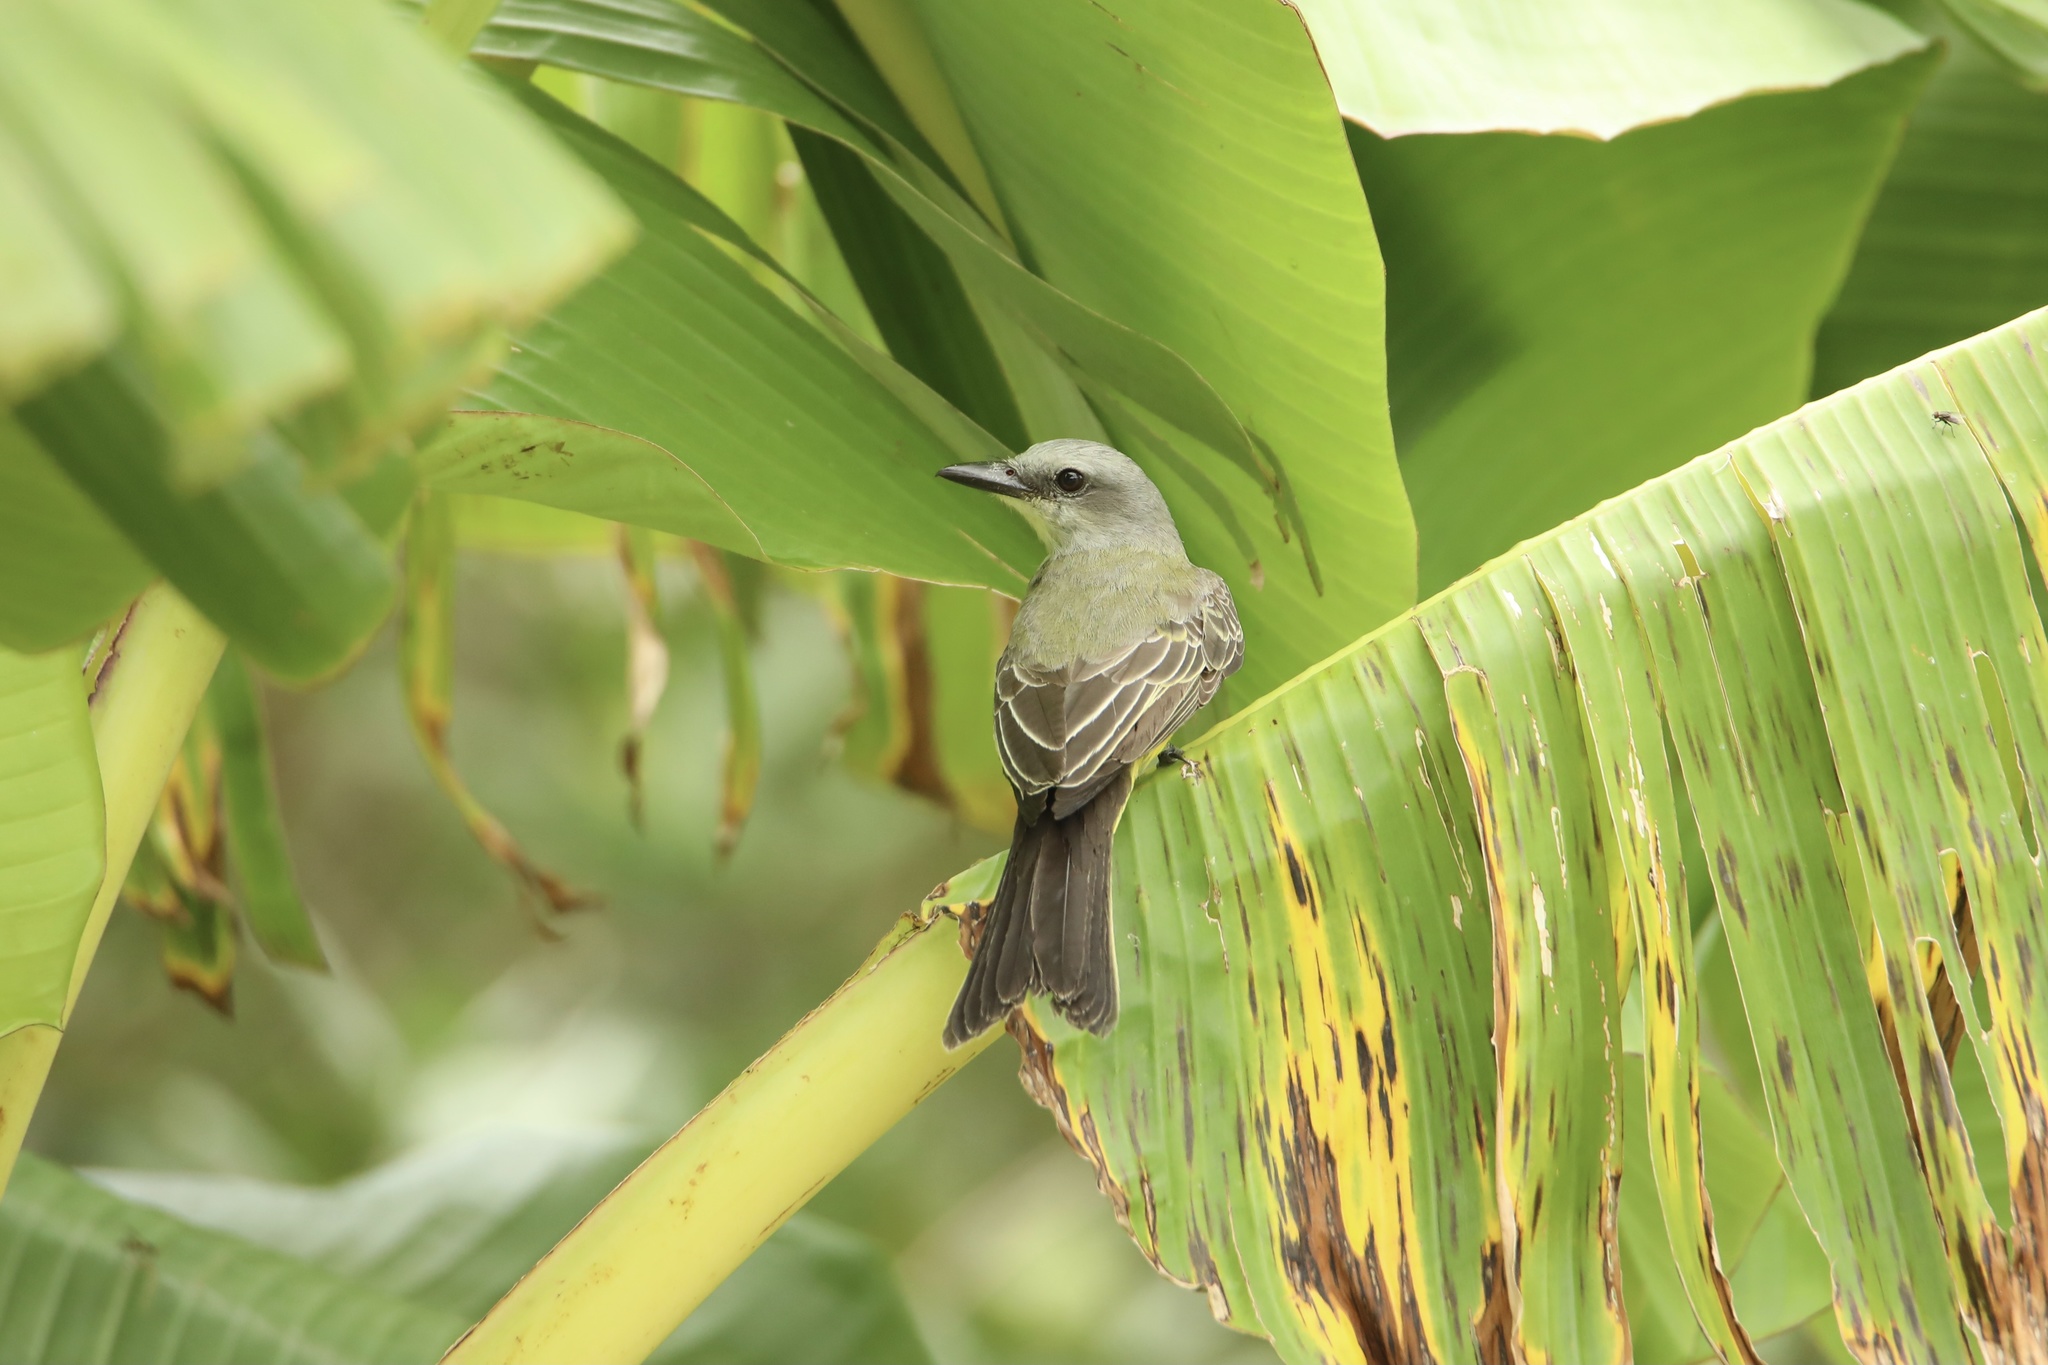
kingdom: Animalia
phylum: Chordata
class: Aves
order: Passeriformes
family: Tyrannidae
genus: Tyrannus
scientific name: Tyrannus melancholicus
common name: Tropical kingbird
